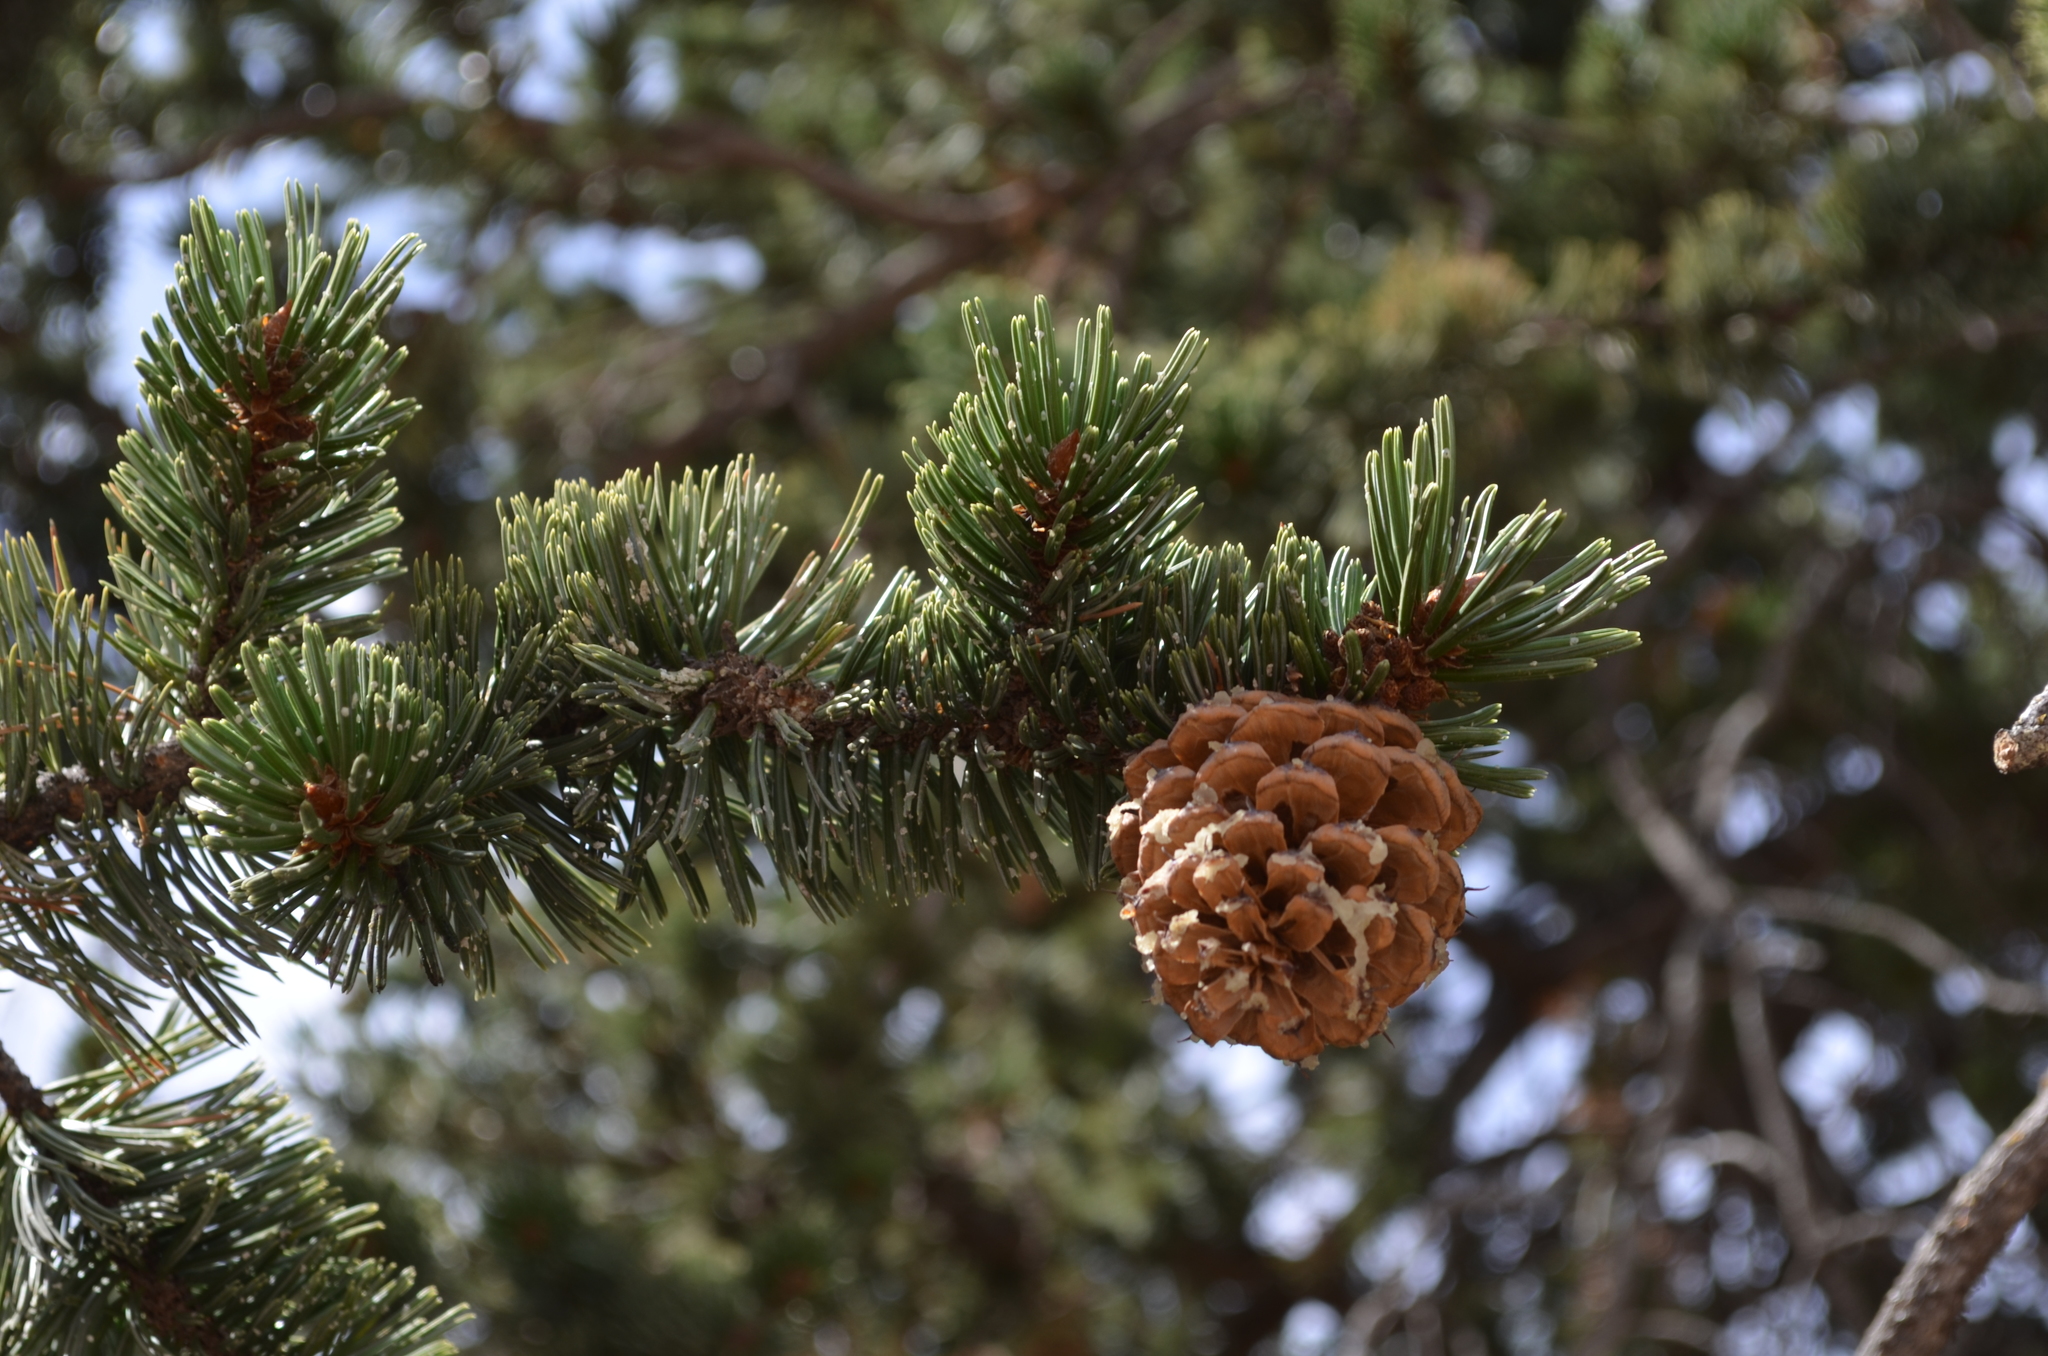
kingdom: Plantae
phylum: Tracheophyta
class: Pinopsida
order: Pinales
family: Pinaceae
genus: Pinus
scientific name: Pinus aristata
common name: Colorado bristlecone pine
